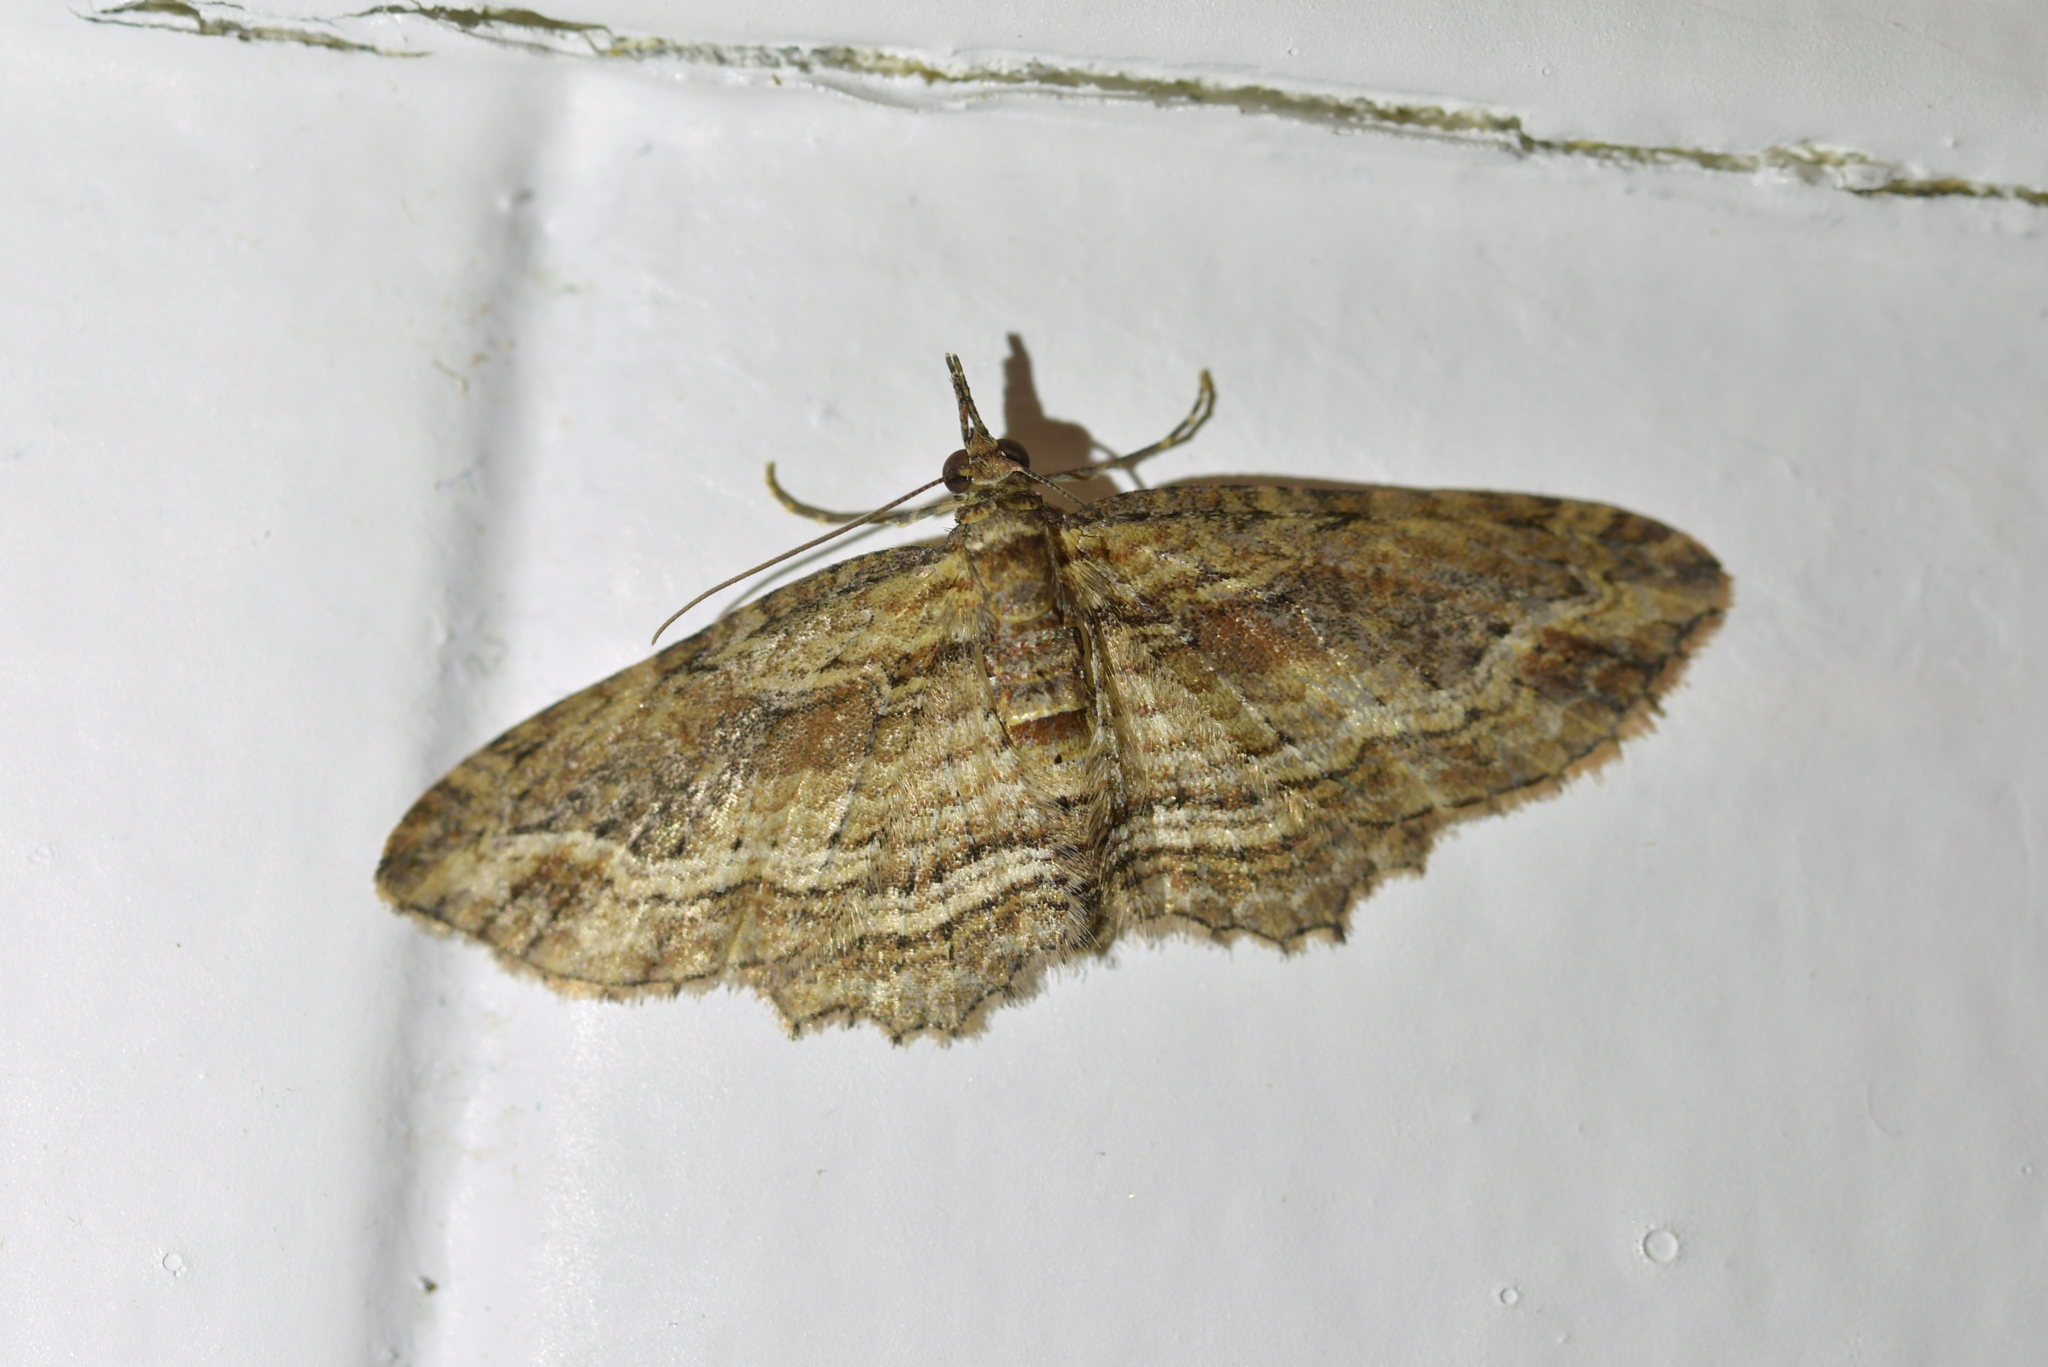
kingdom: Animalia
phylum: Arthropoda
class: Insecta
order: Lepidoptera
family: Geometridae
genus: Chloroclystis
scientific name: Chloroclystis filata
